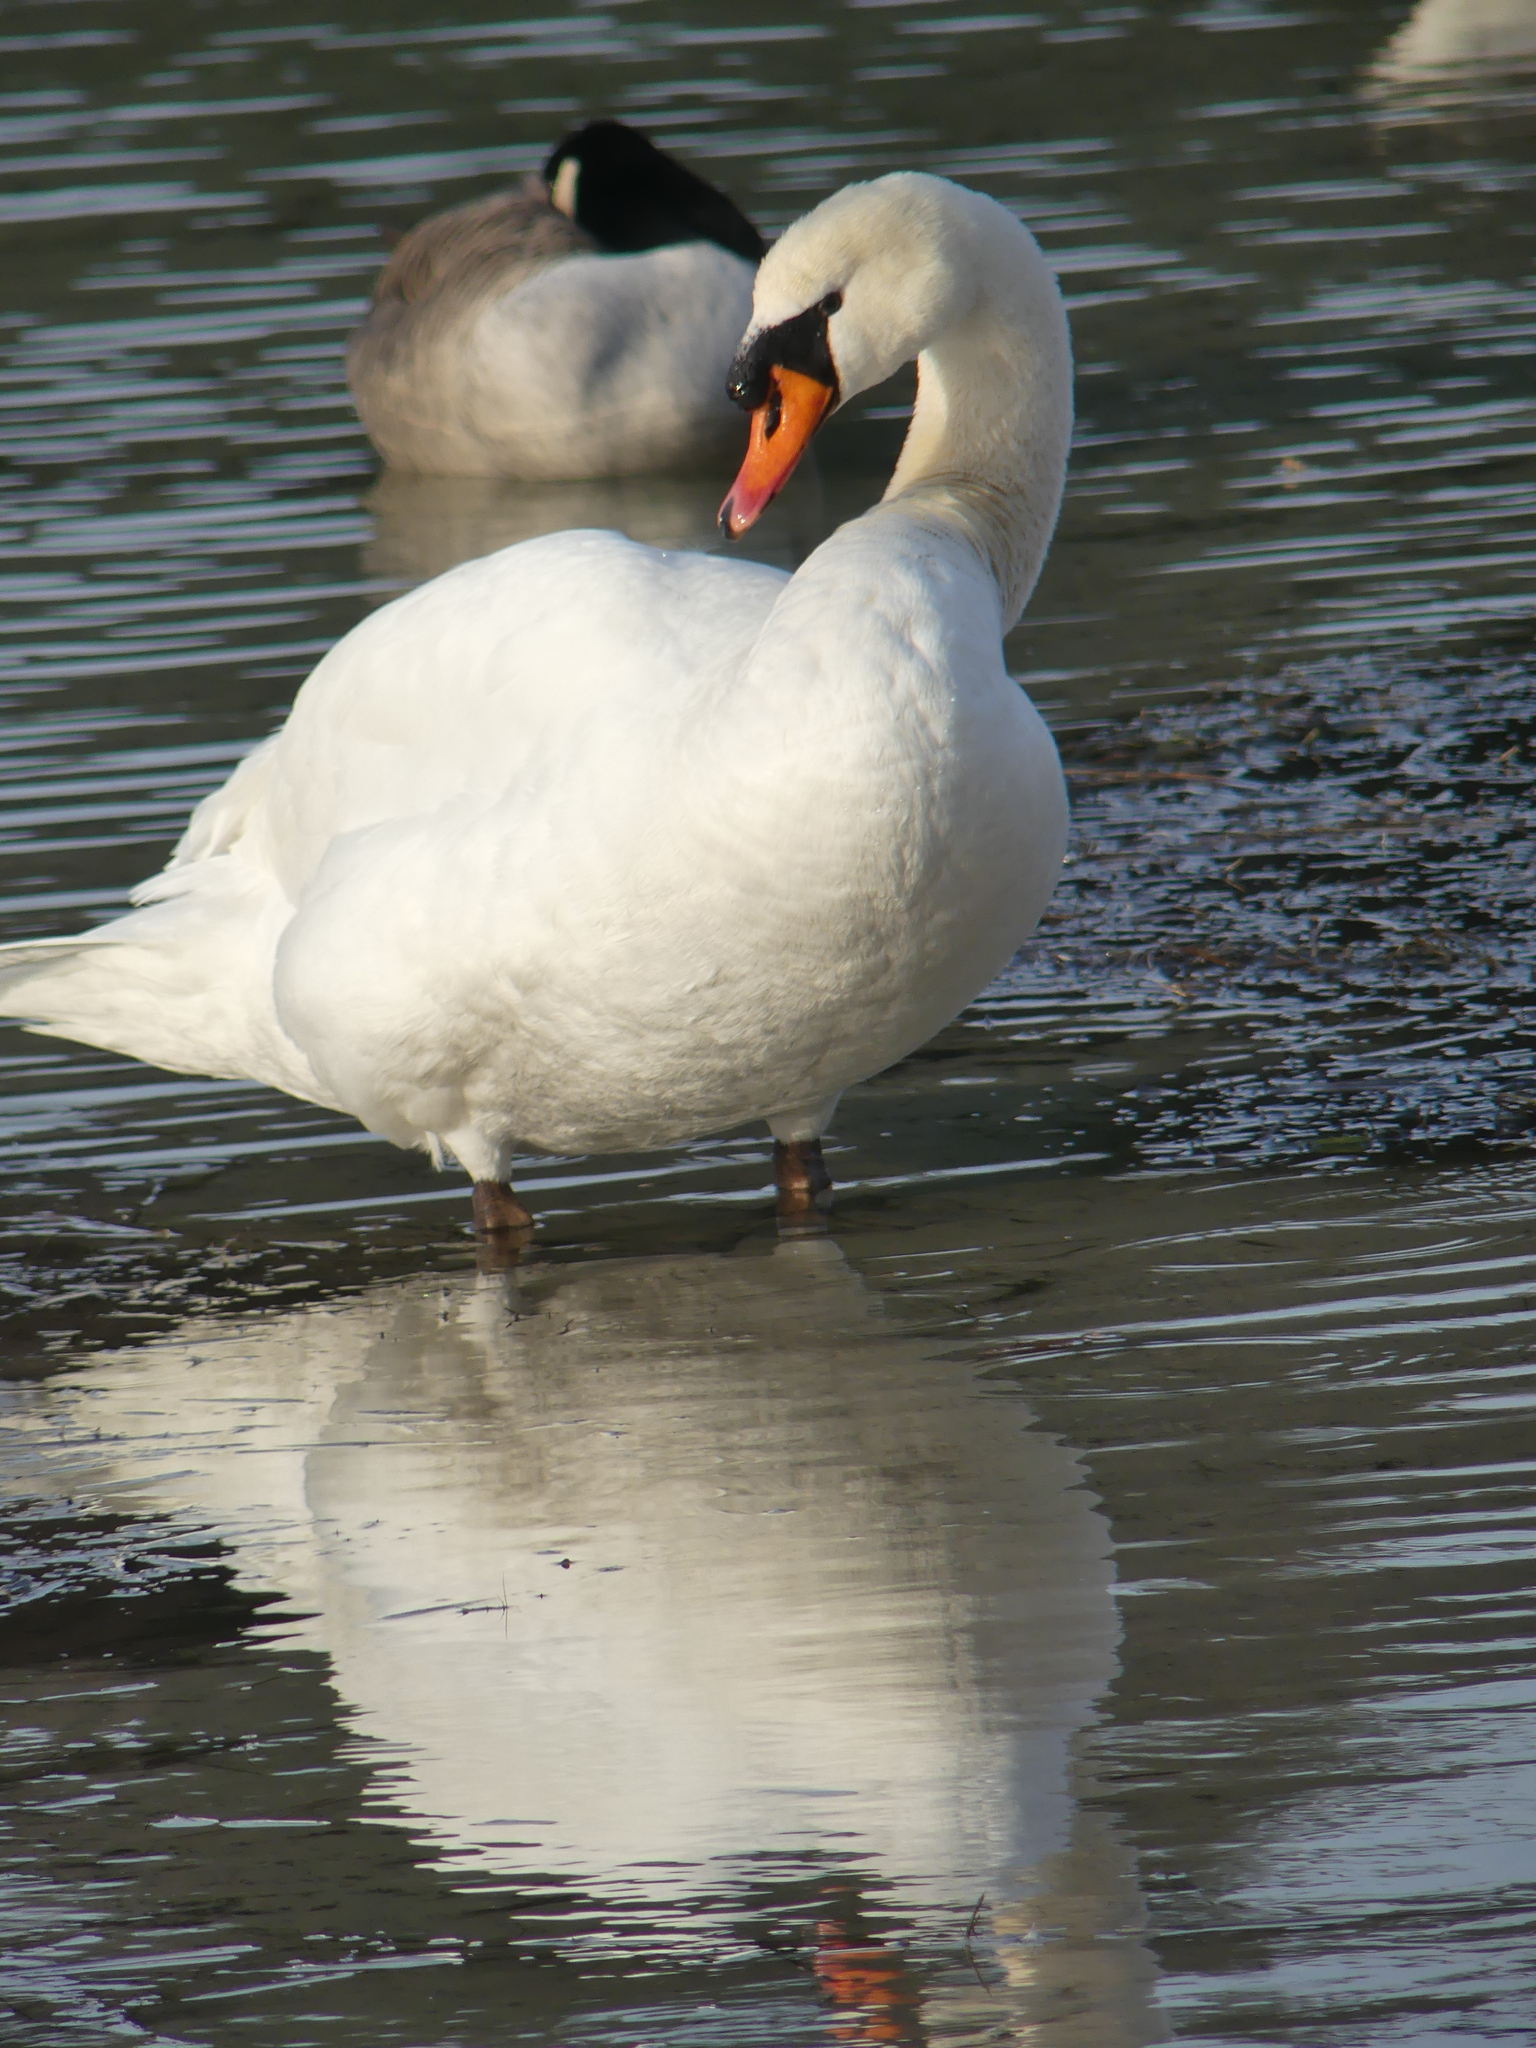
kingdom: Animalia
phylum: Chordata
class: Aves
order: Anseriformes
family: Anatidae
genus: Cygnus
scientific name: Cygnus olor
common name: Mute swan
